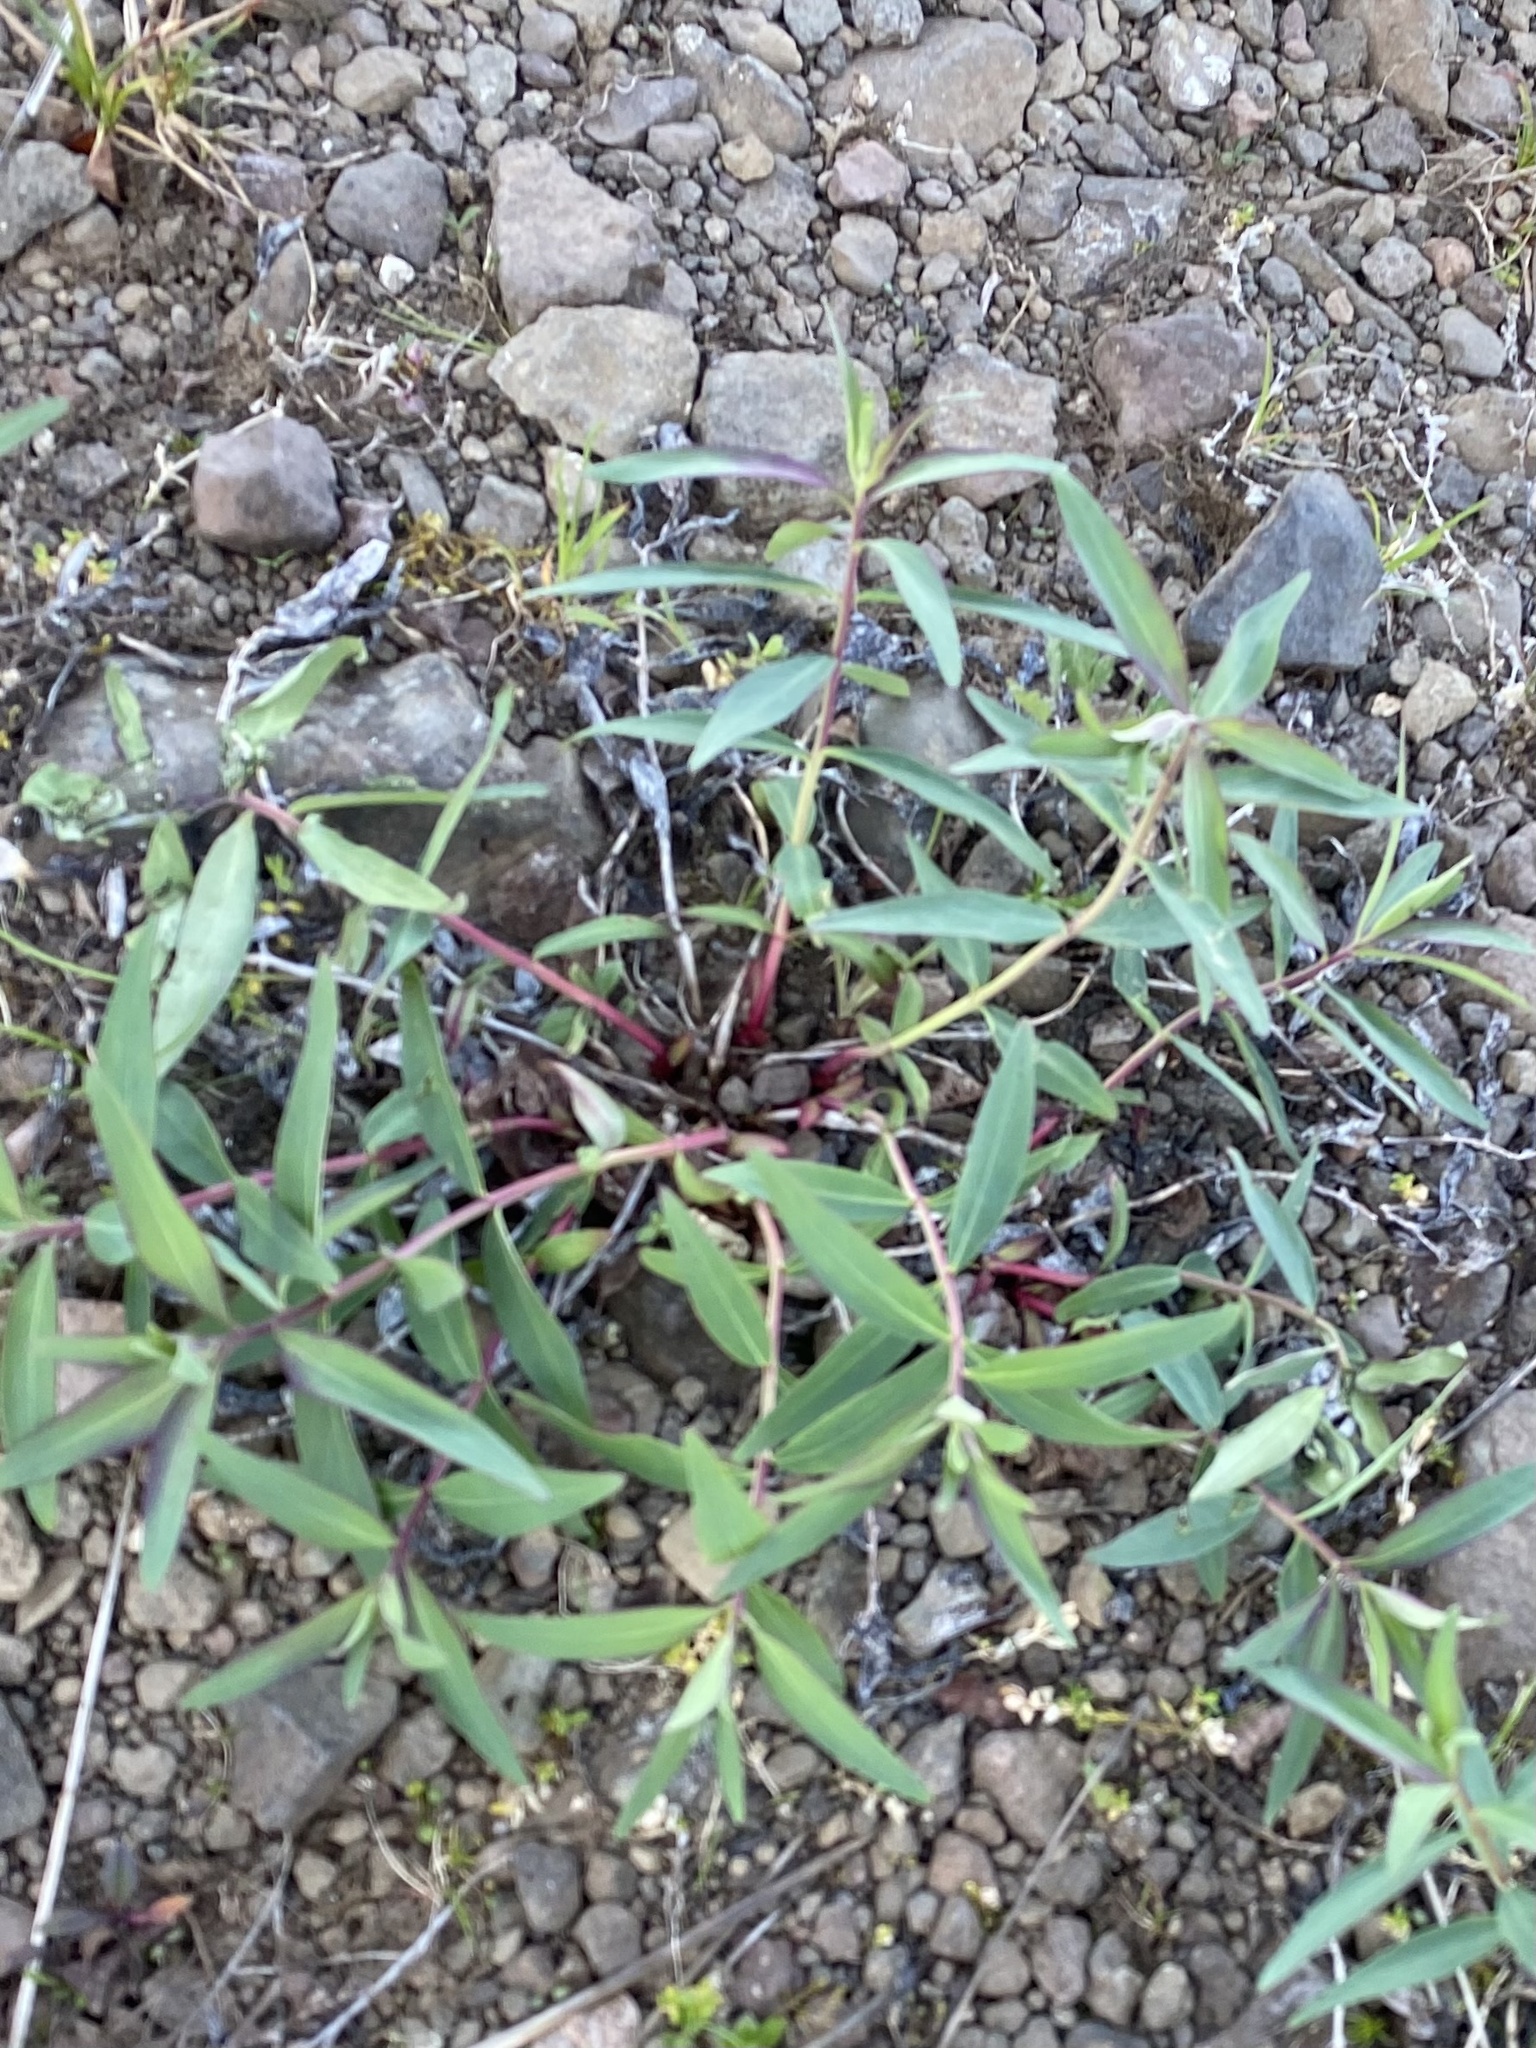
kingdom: Plantae
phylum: Tracheophyta
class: Magnoliopsida
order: Myrtales
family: Onagraceae
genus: Chamaenerion
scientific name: Chamaenerion latifolium
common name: Dwarf fireweed
